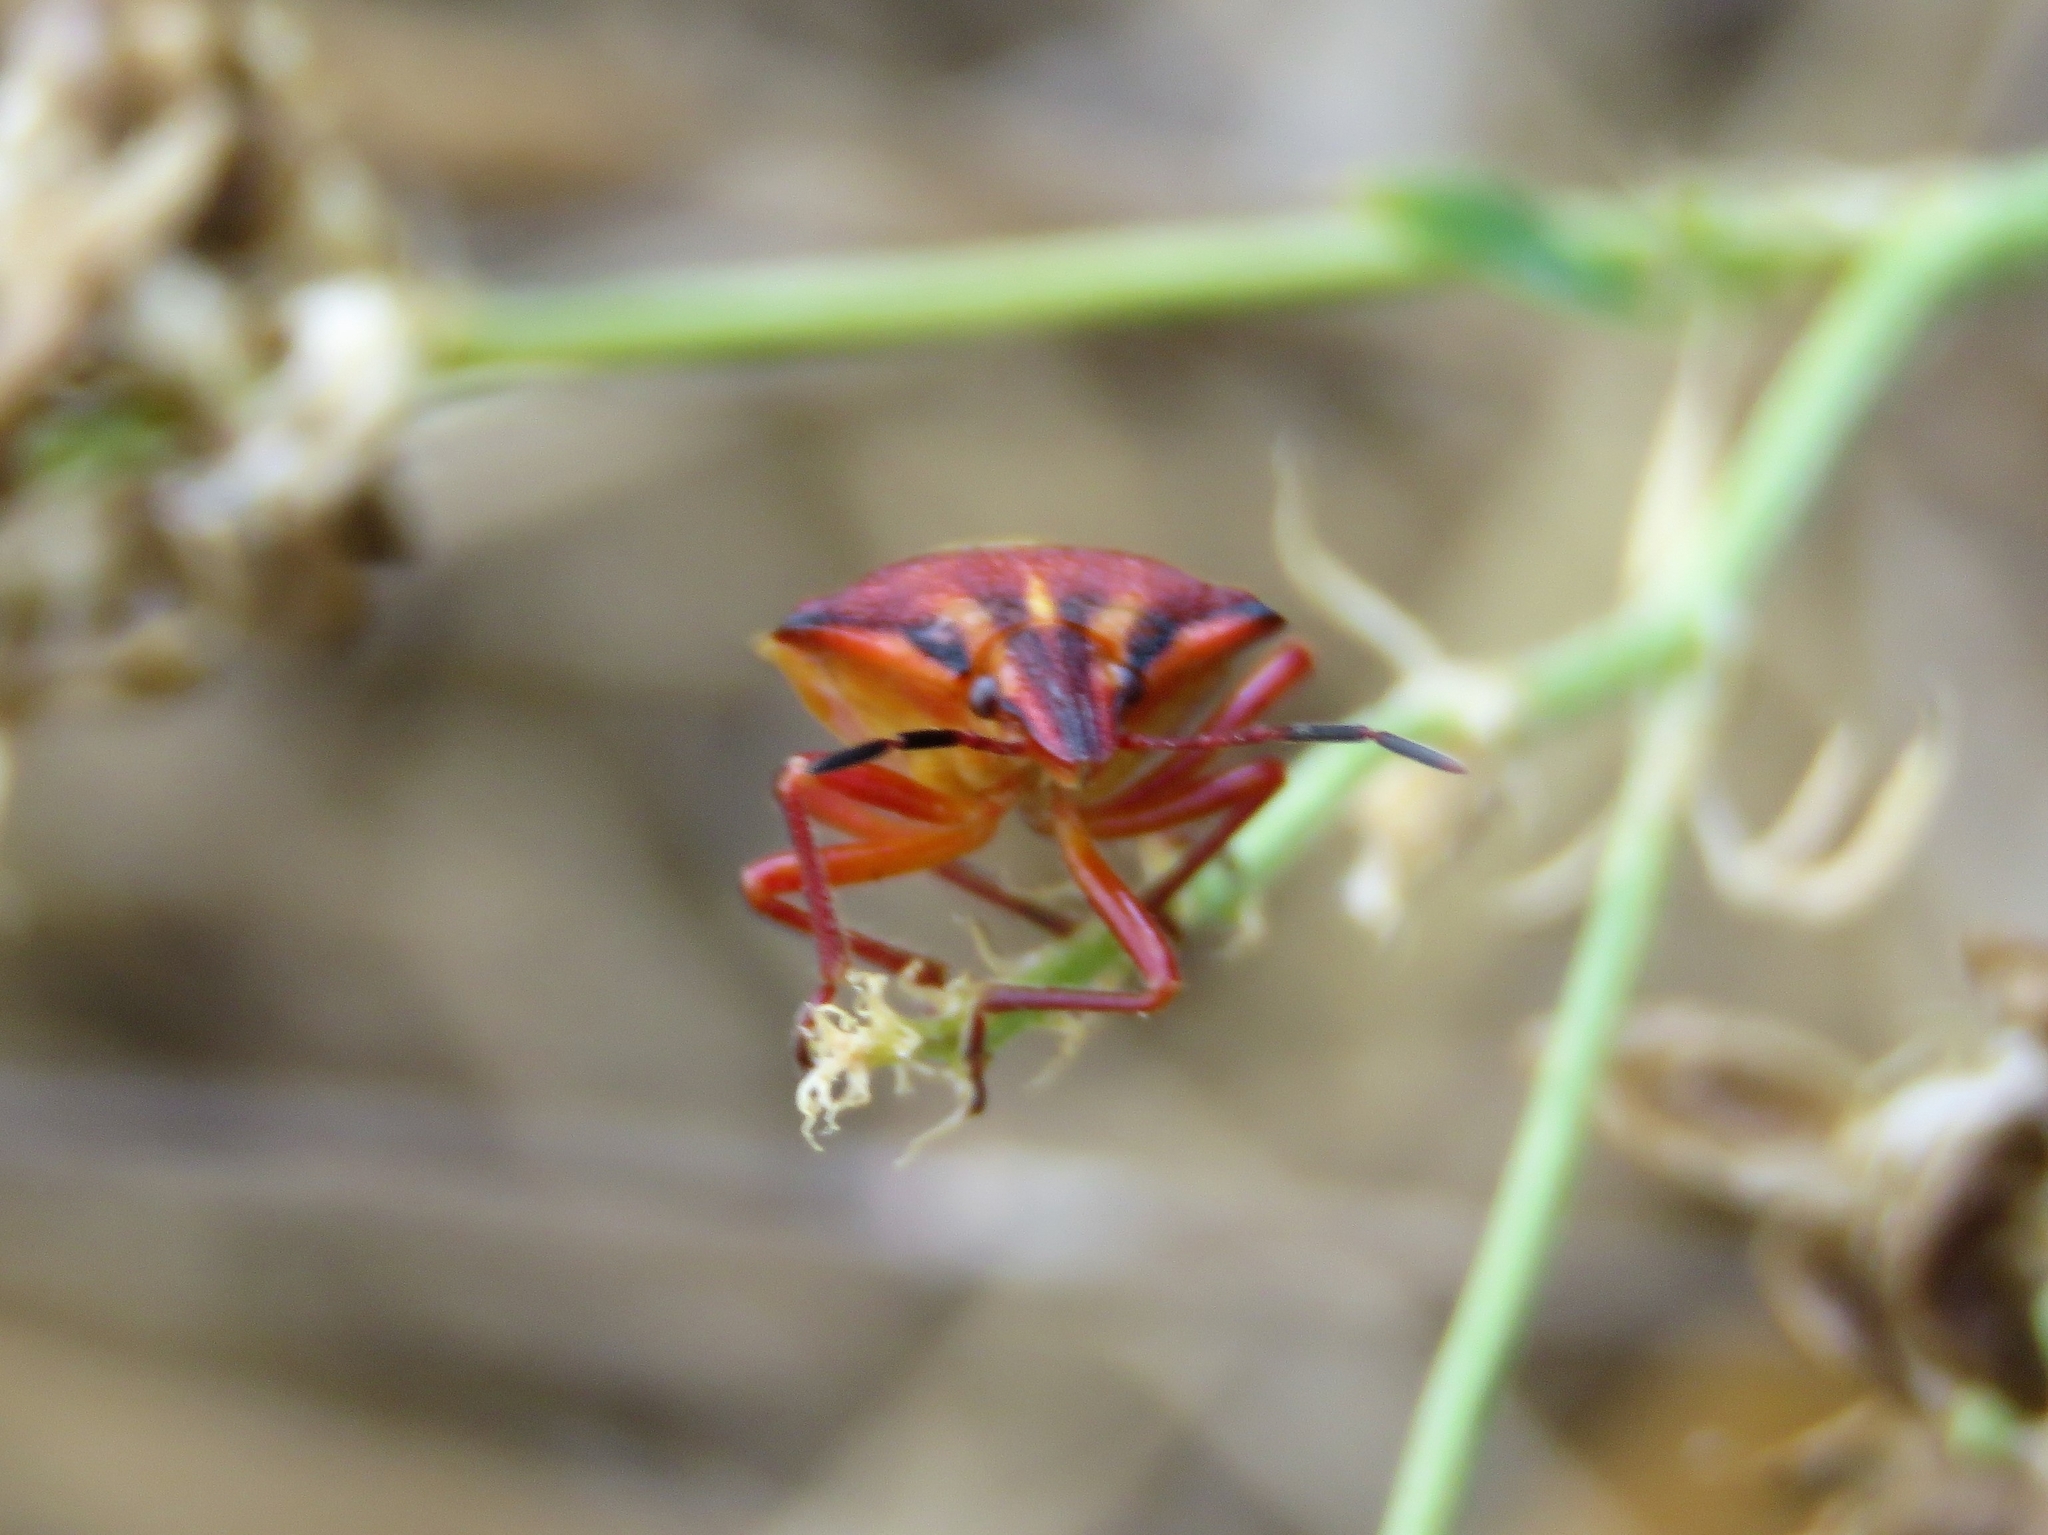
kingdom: Animalia
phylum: Arthropoda
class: Insecta
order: Hemiptera
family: Miridae
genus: Orthops
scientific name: Orthops kalmii
